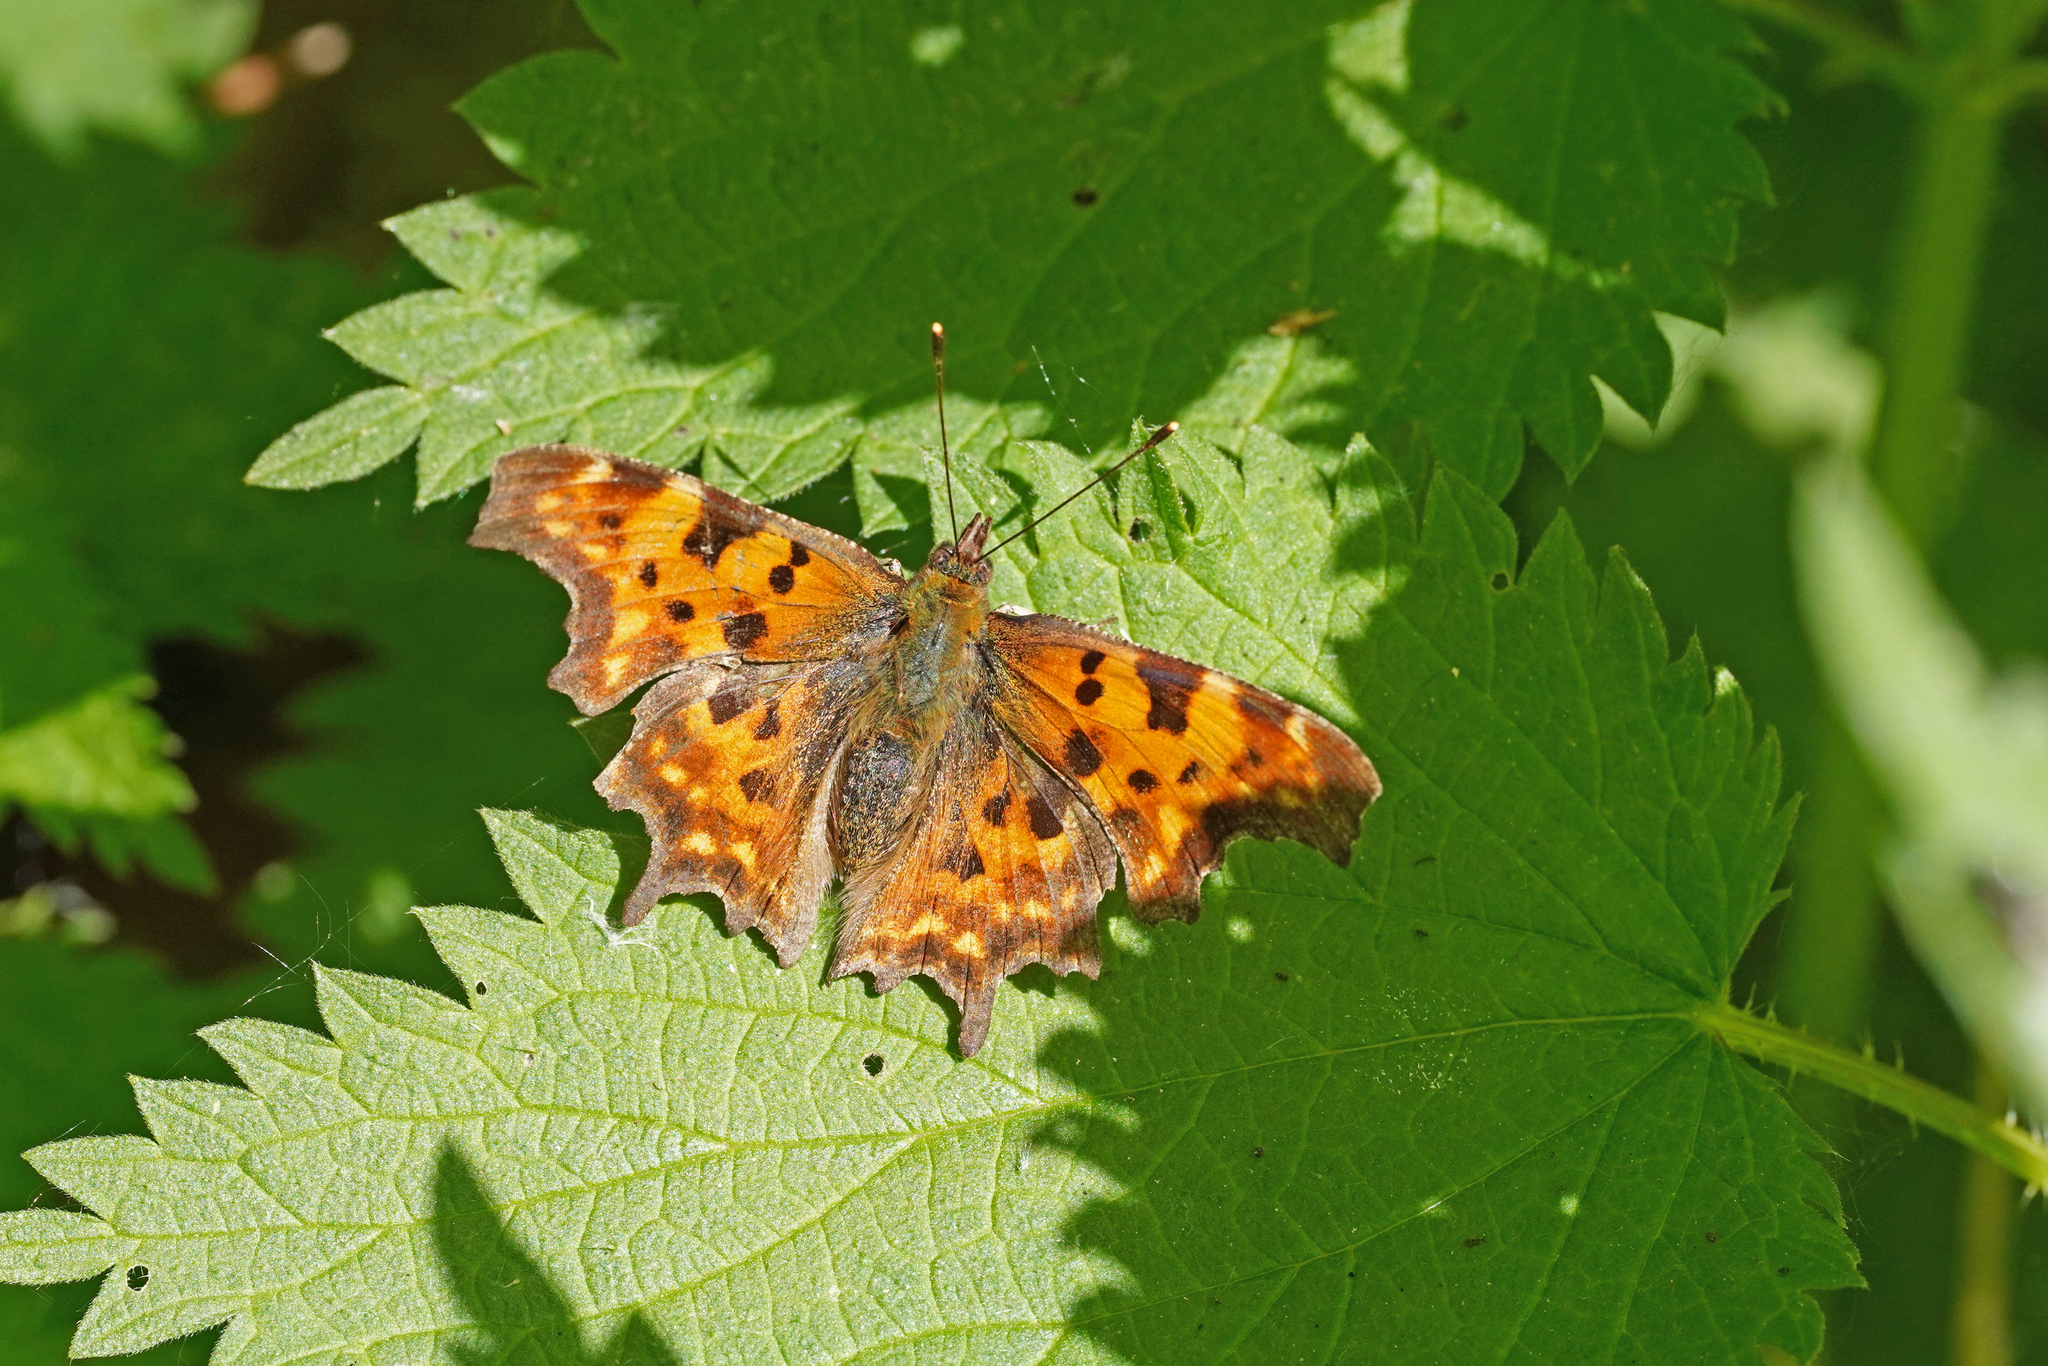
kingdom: Animalia
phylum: Arthropoda
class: Insecta
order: Lepidoptera
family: Nymphalidae
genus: Polygonia
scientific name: Polygonia c-album
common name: Comma
